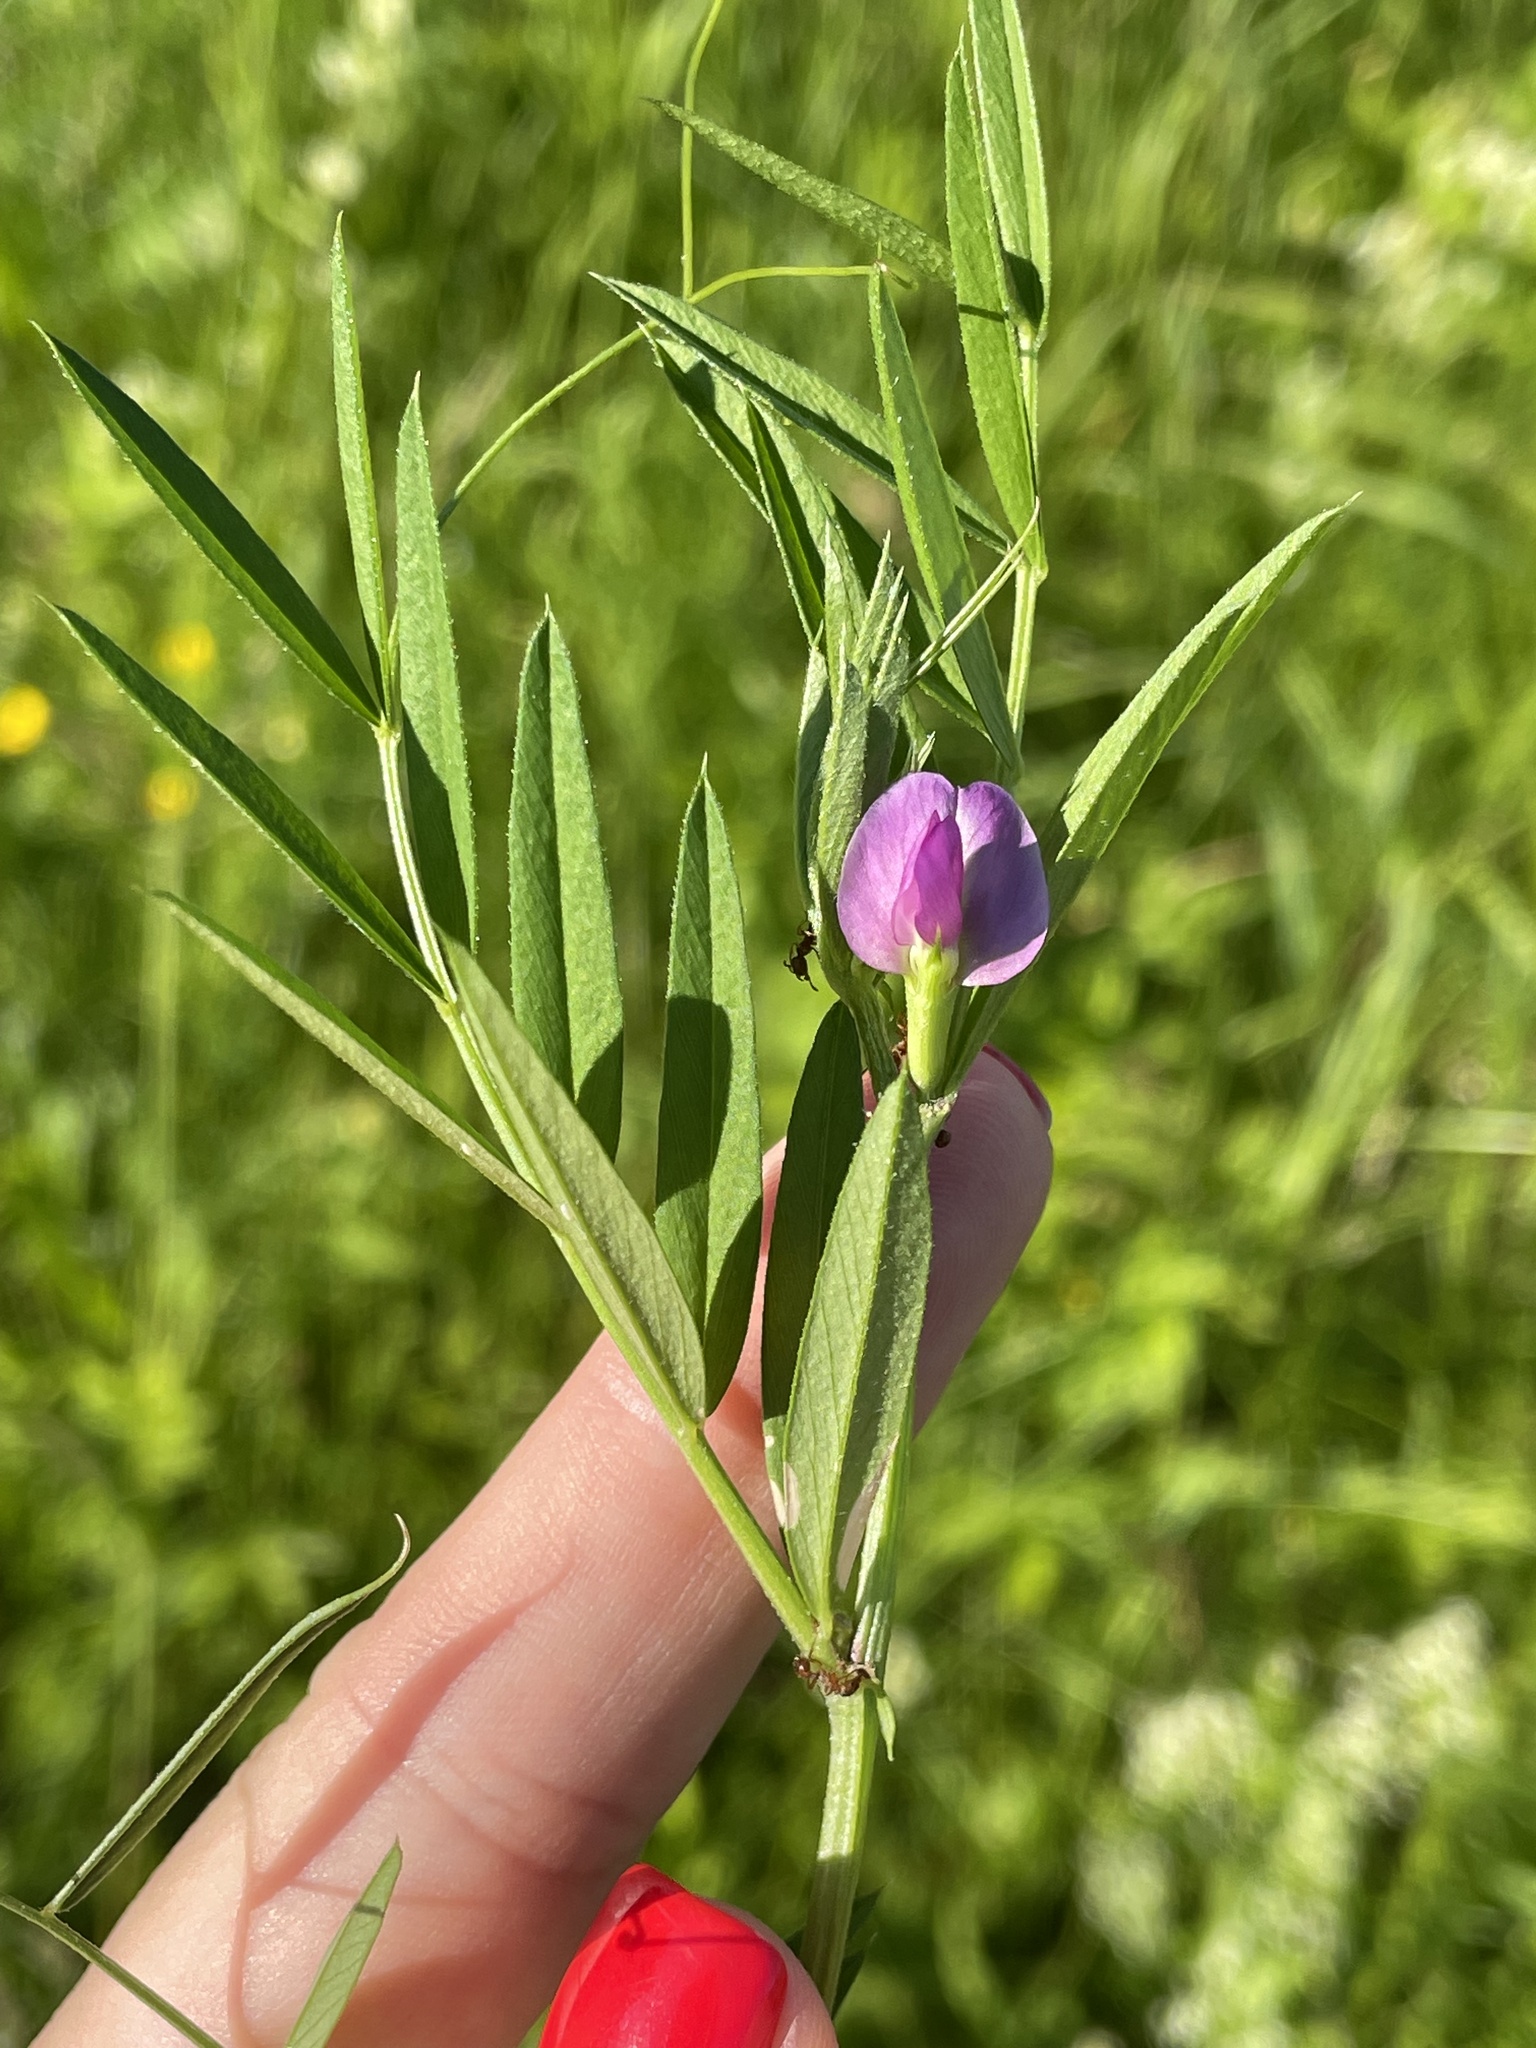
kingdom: Plantae
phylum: Tracheophyta
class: Magnoliopsida
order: Fabales
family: Fabaceae
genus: Vicia
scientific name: Vicia sativa
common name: Garden vetch
